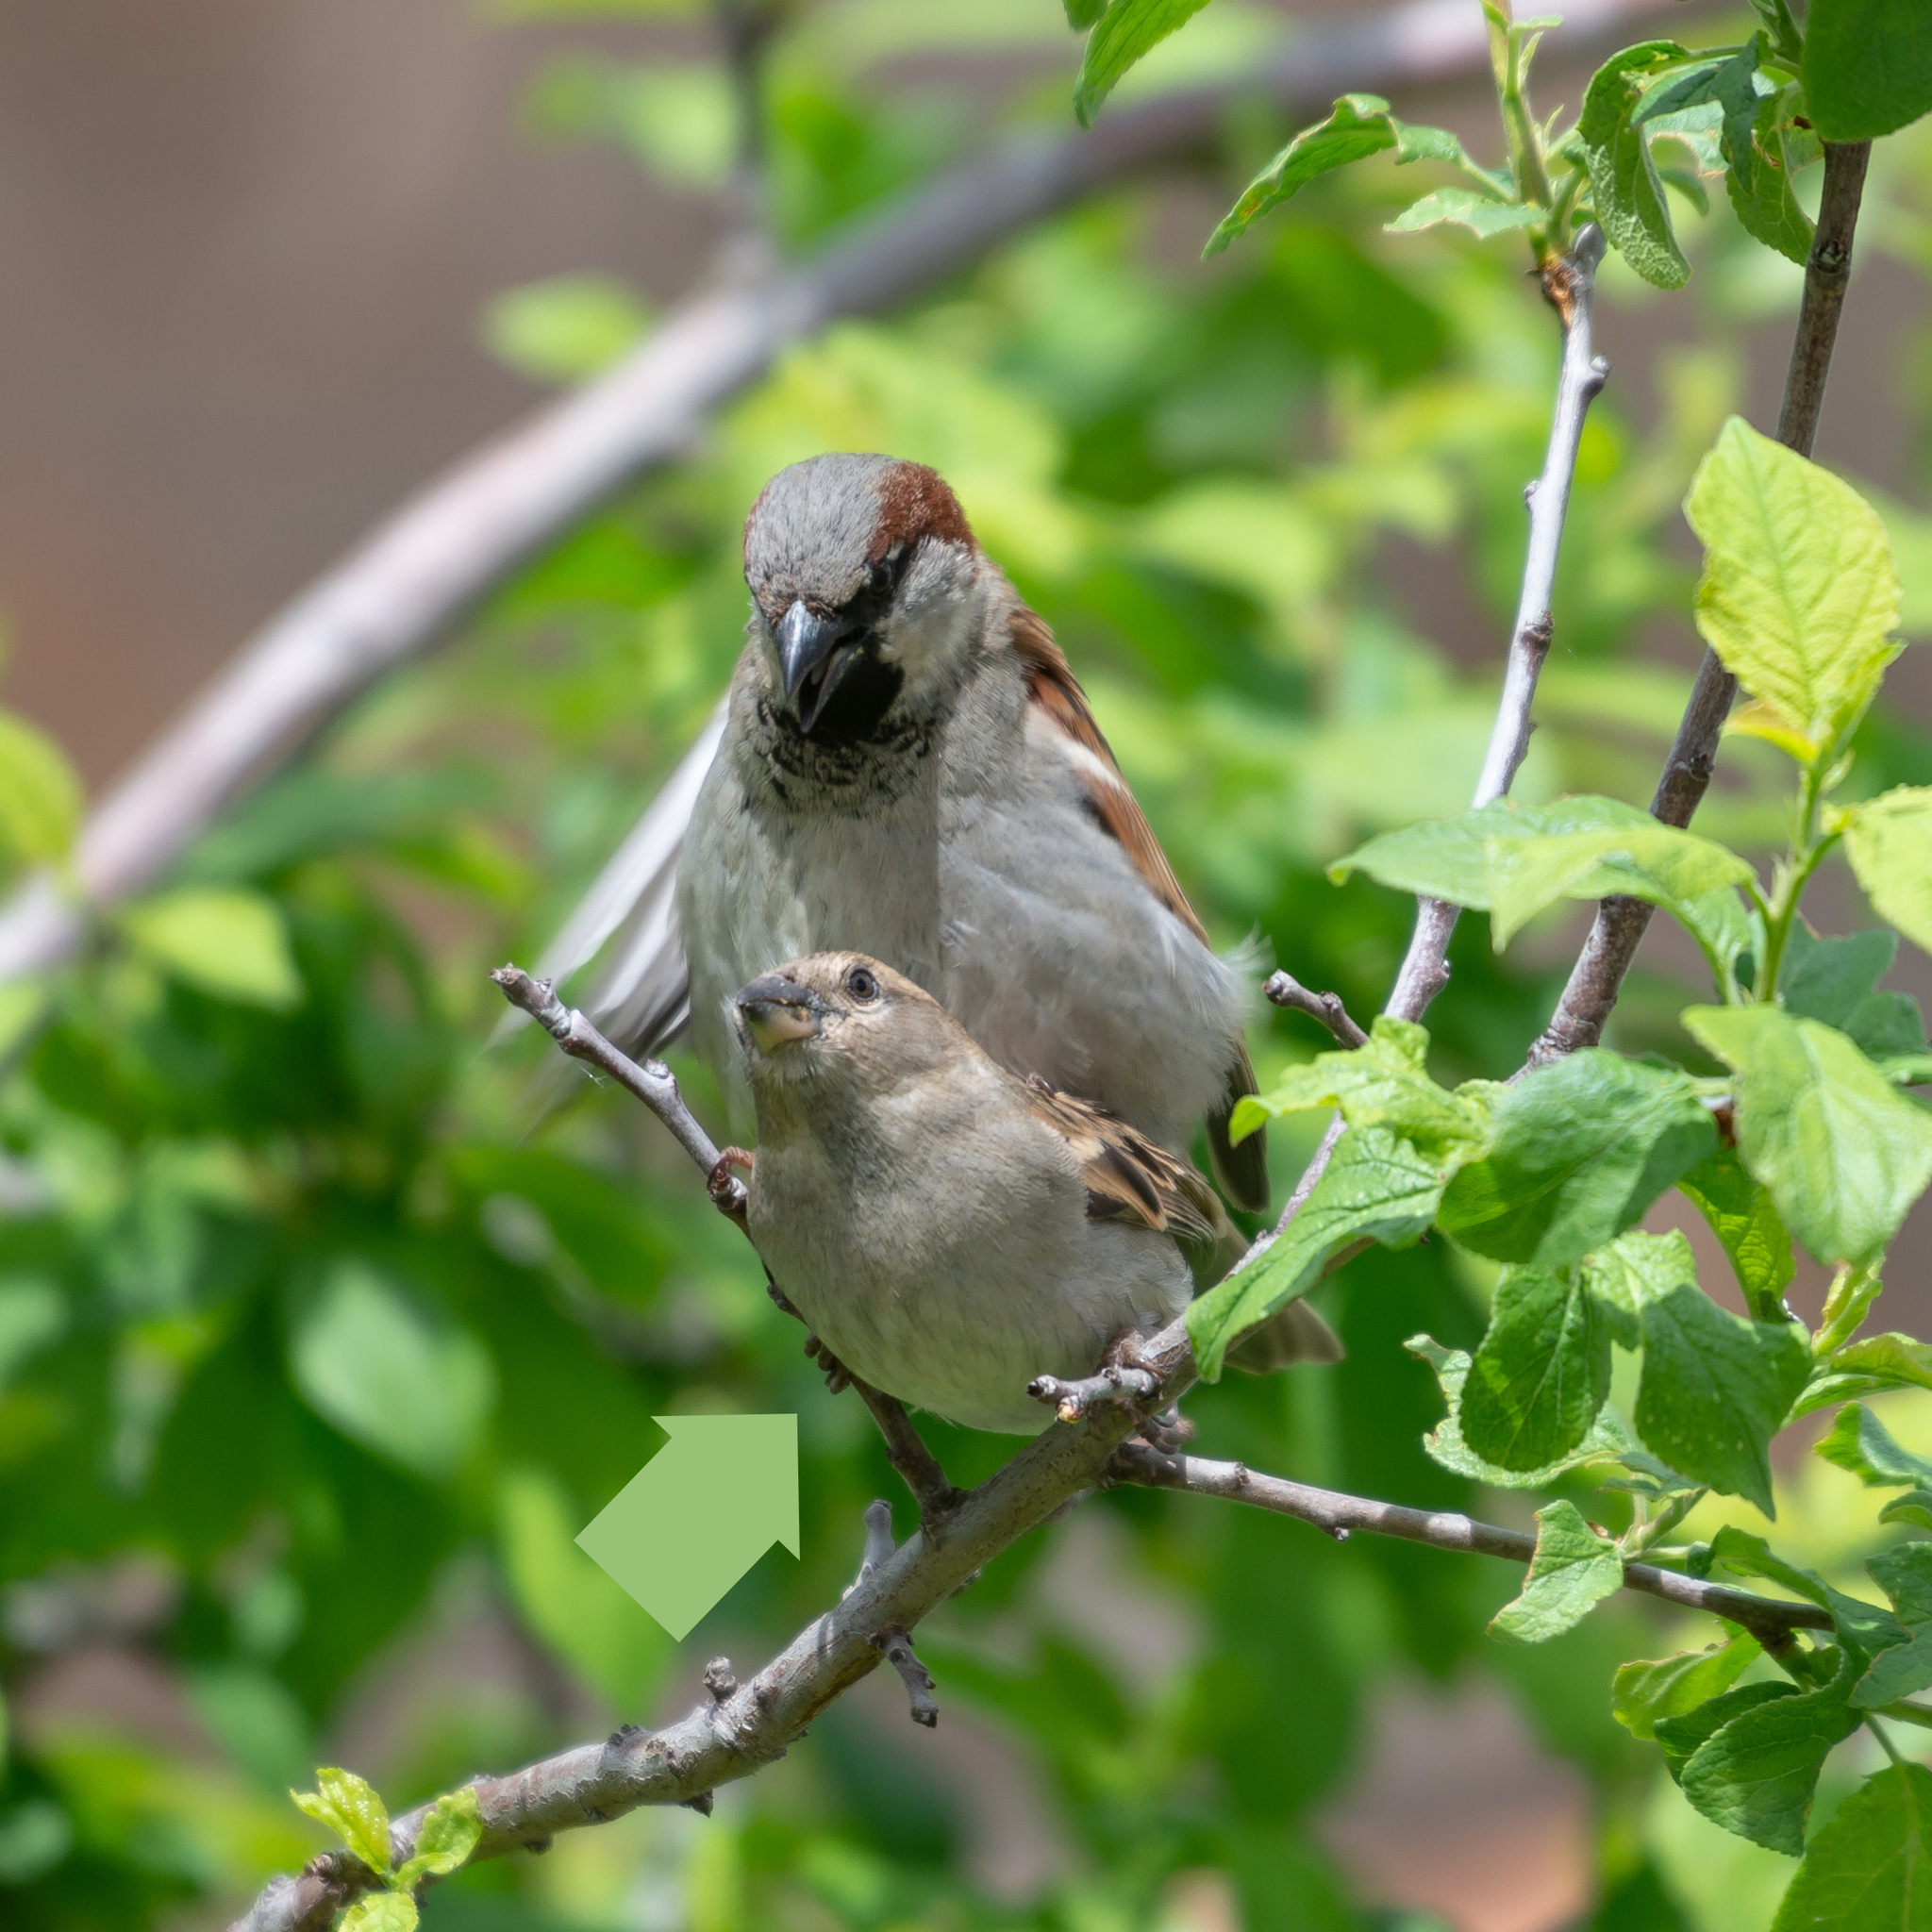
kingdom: Animalia
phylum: Chordata
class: Aves
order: Passeriformes
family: Passeridae
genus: Passer
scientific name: Passer domesticus
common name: House sparrow
